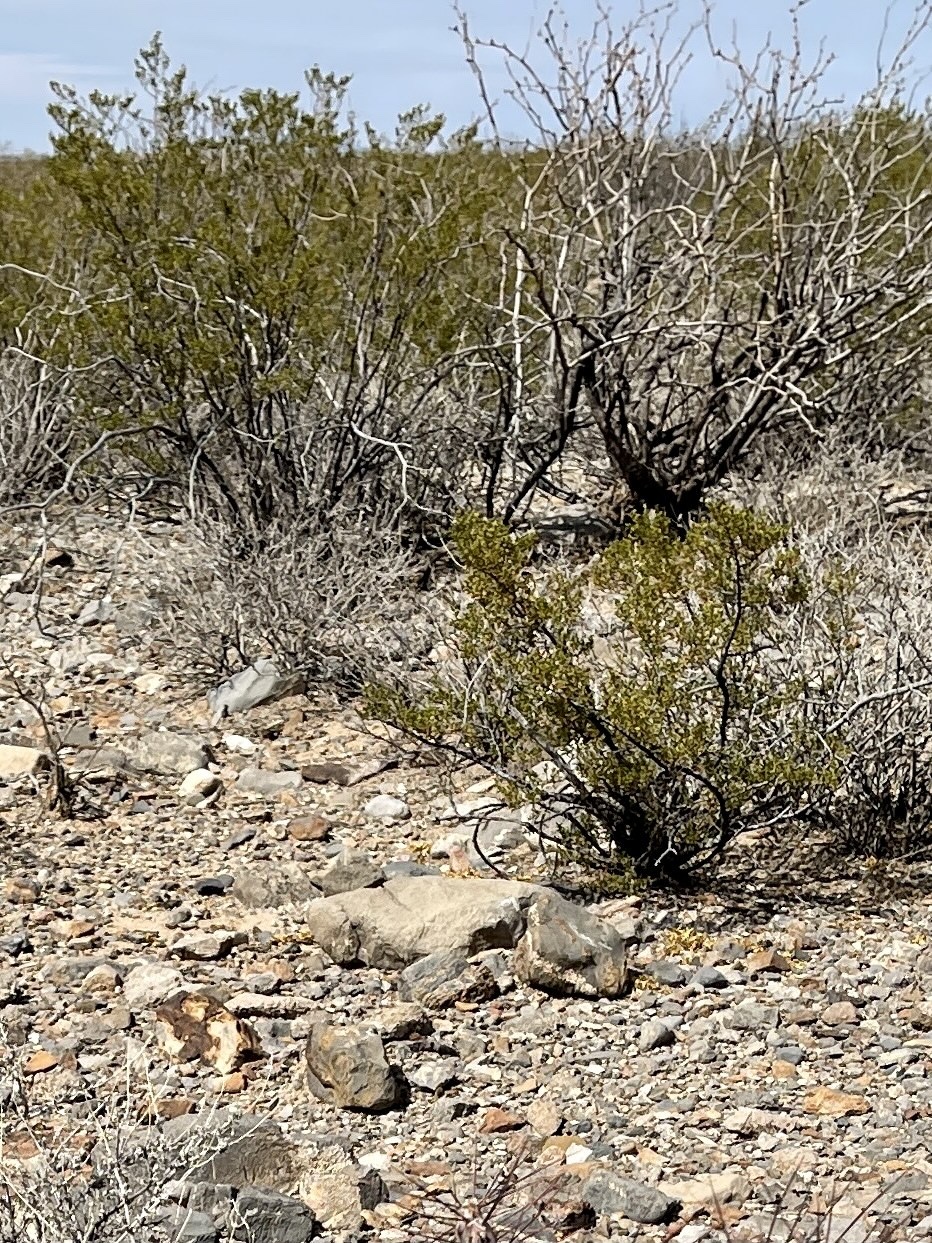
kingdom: Plantae
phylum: Tracheophyta
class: Magnoliopsida
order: Zygophyllales
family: Zygophyllaceae
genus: Larrea
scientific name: Larrea tridentata
